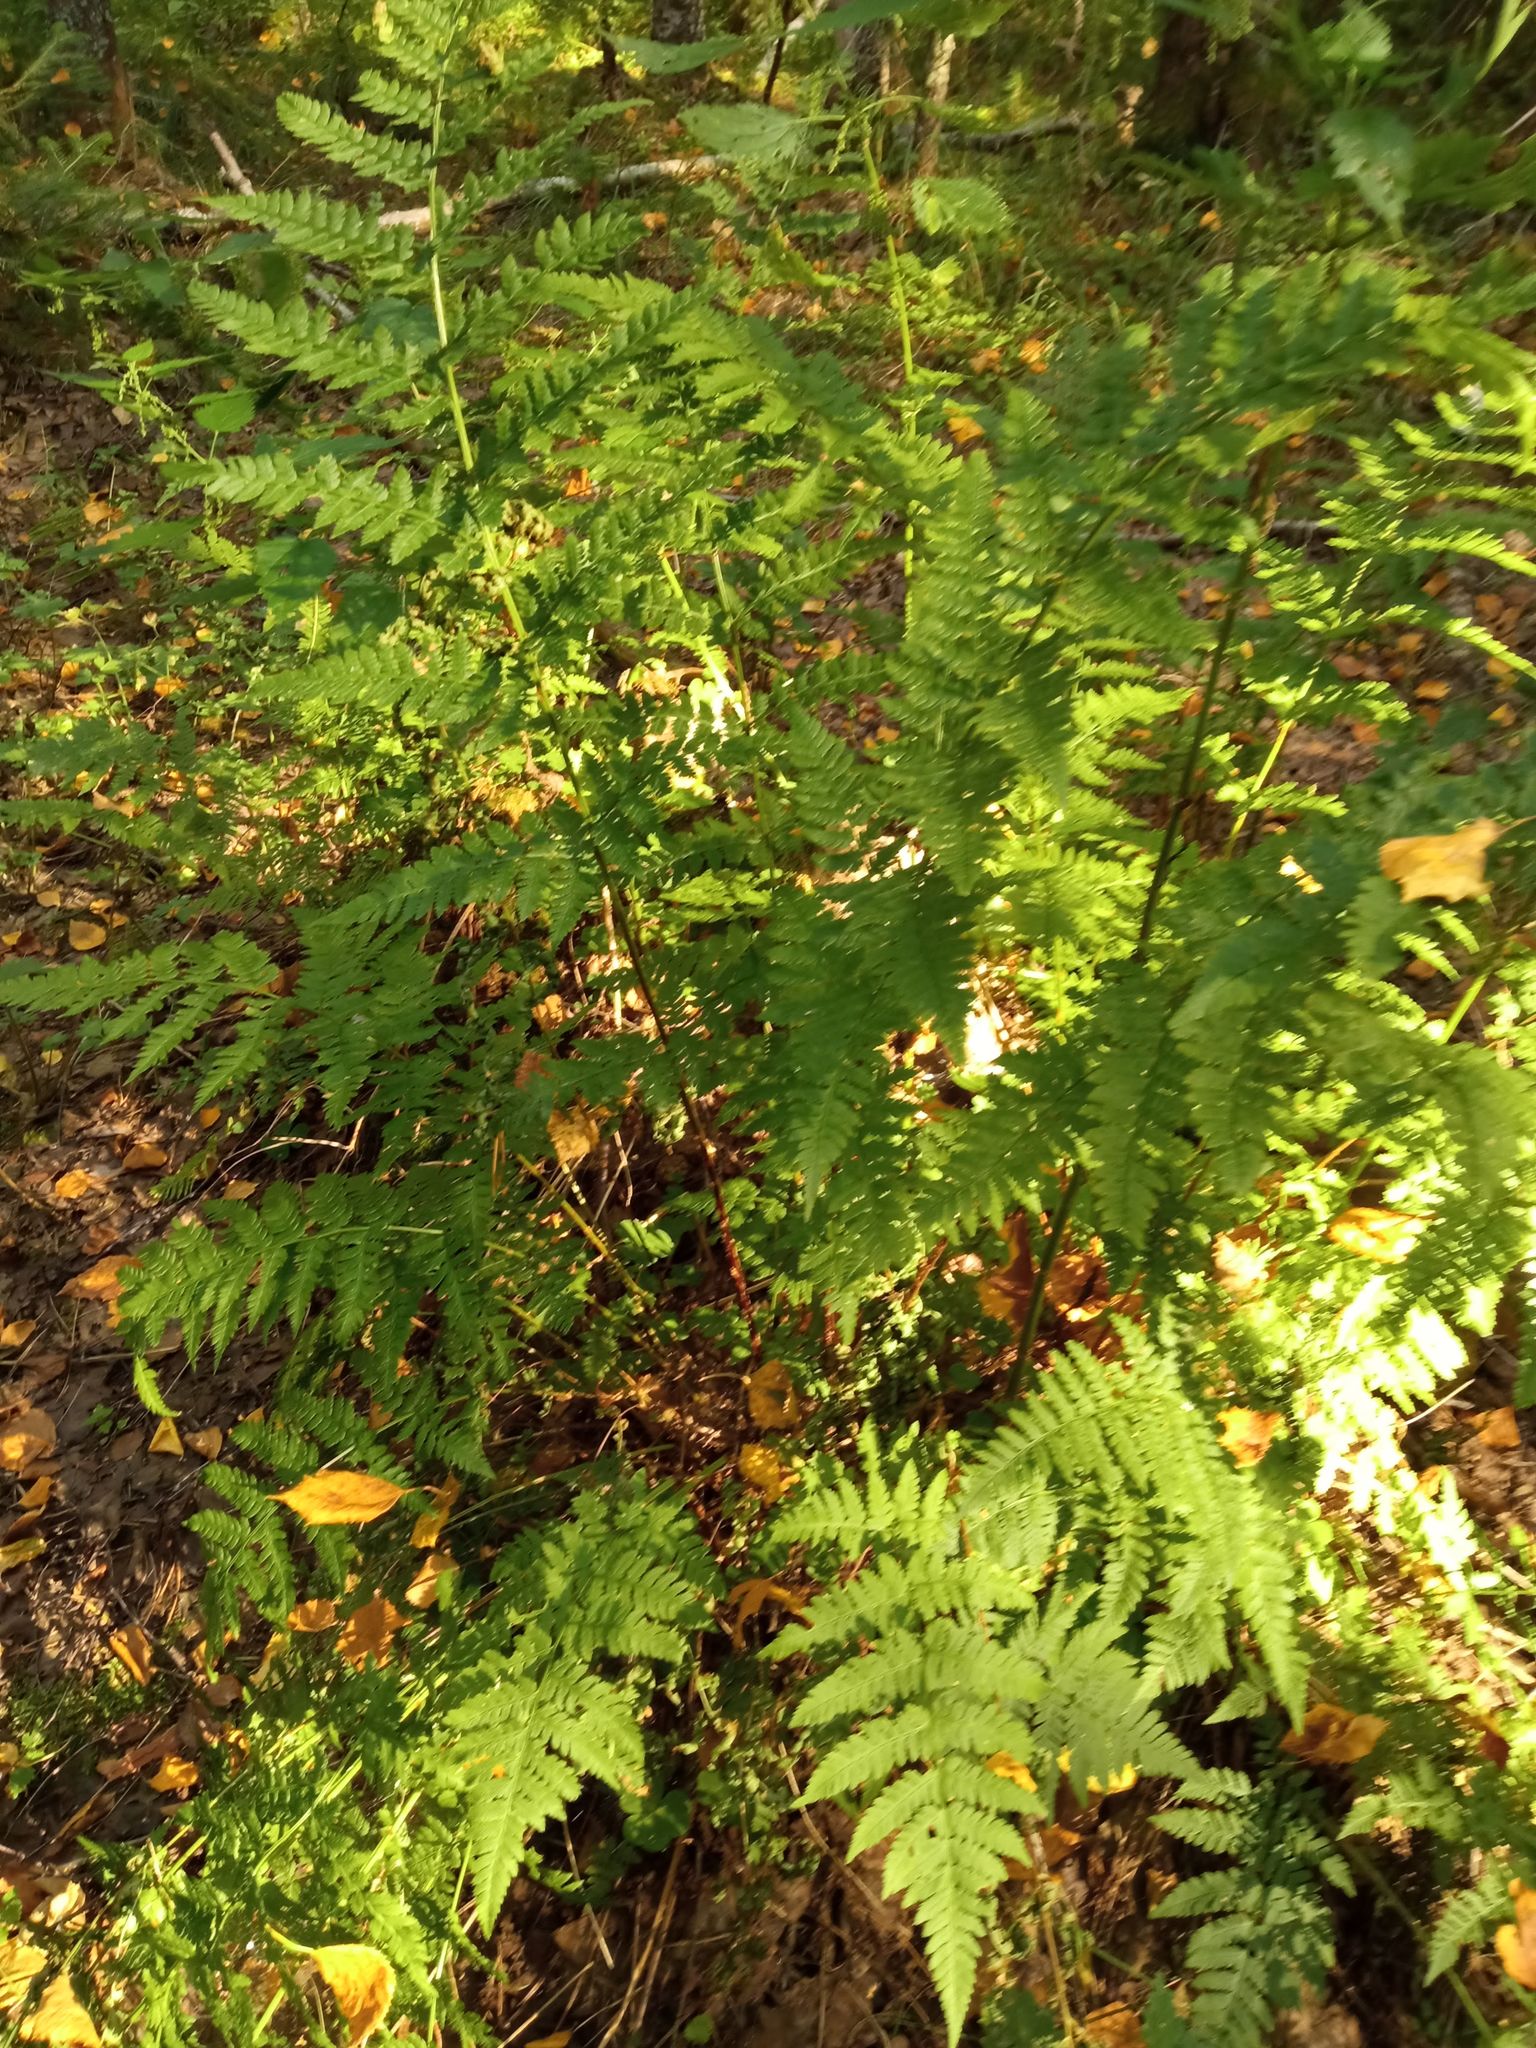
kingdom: Plantae
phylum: Tracheophyta
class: Polypodiopsida
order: Polypodiales
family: Dryopteridaceae
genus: Dryopteris
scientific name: Dryopteris carthusiana
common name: Narrow buckler-fern
